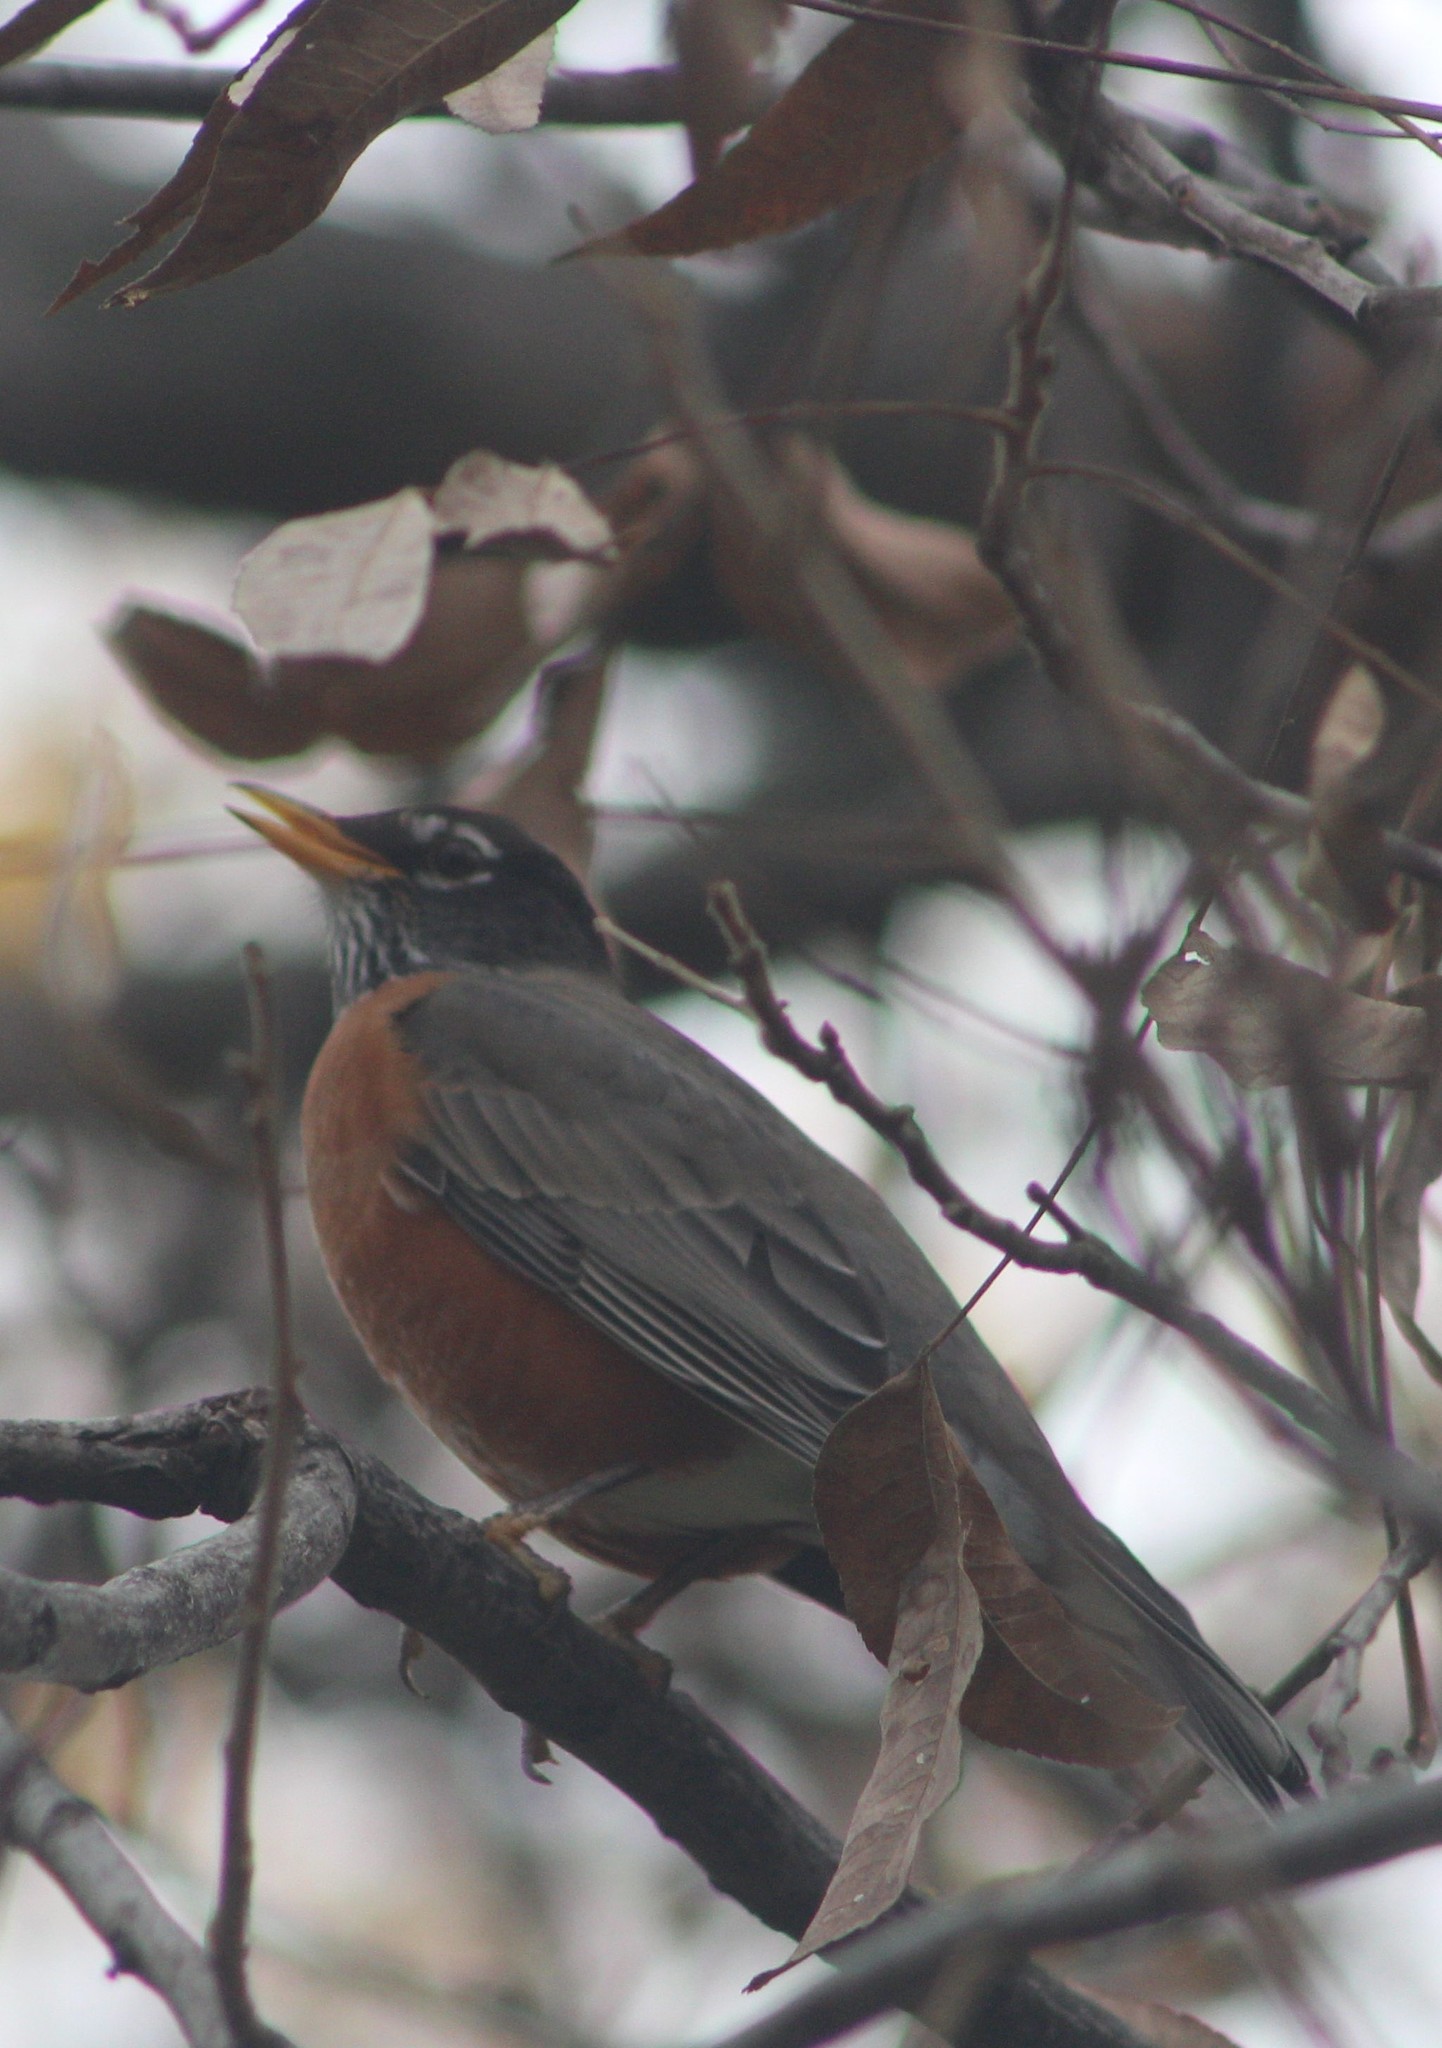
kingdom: Animalia
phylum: Chordata
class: Aves
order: Passeriformes
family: Turdidae
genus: Turdus
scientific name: Turdus migratorius
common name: American robin
